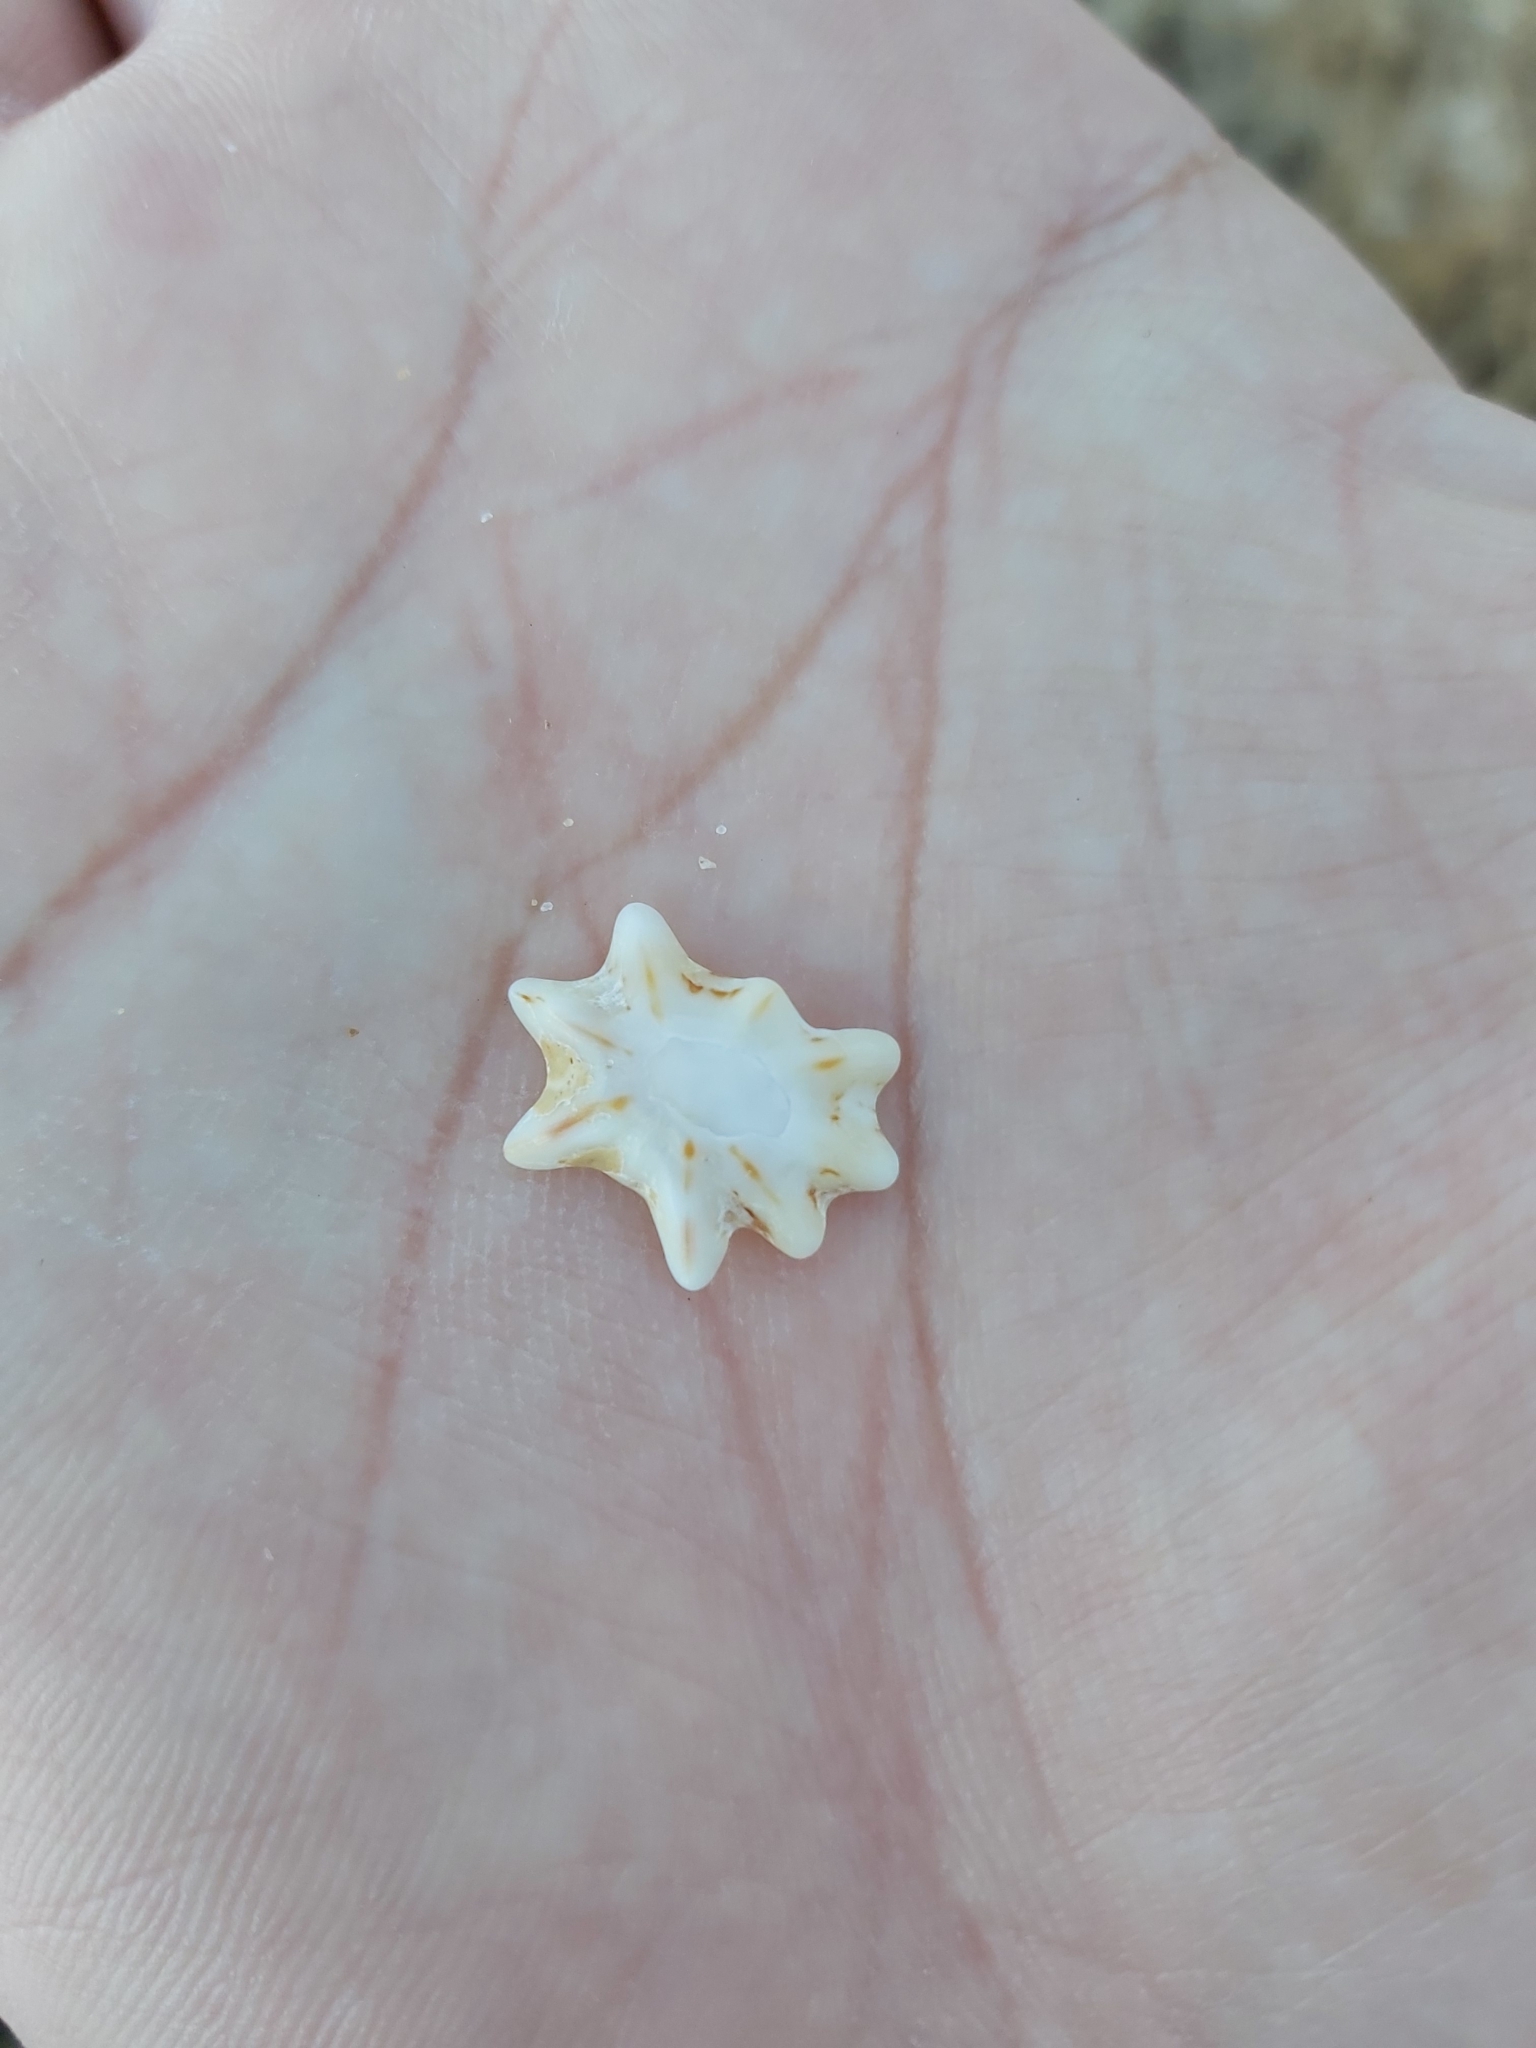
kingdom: Animalia
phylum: Mollusca
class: Gastropoda
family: Patellidae
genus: Scutellastra
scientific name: Scutellastra chapmani
